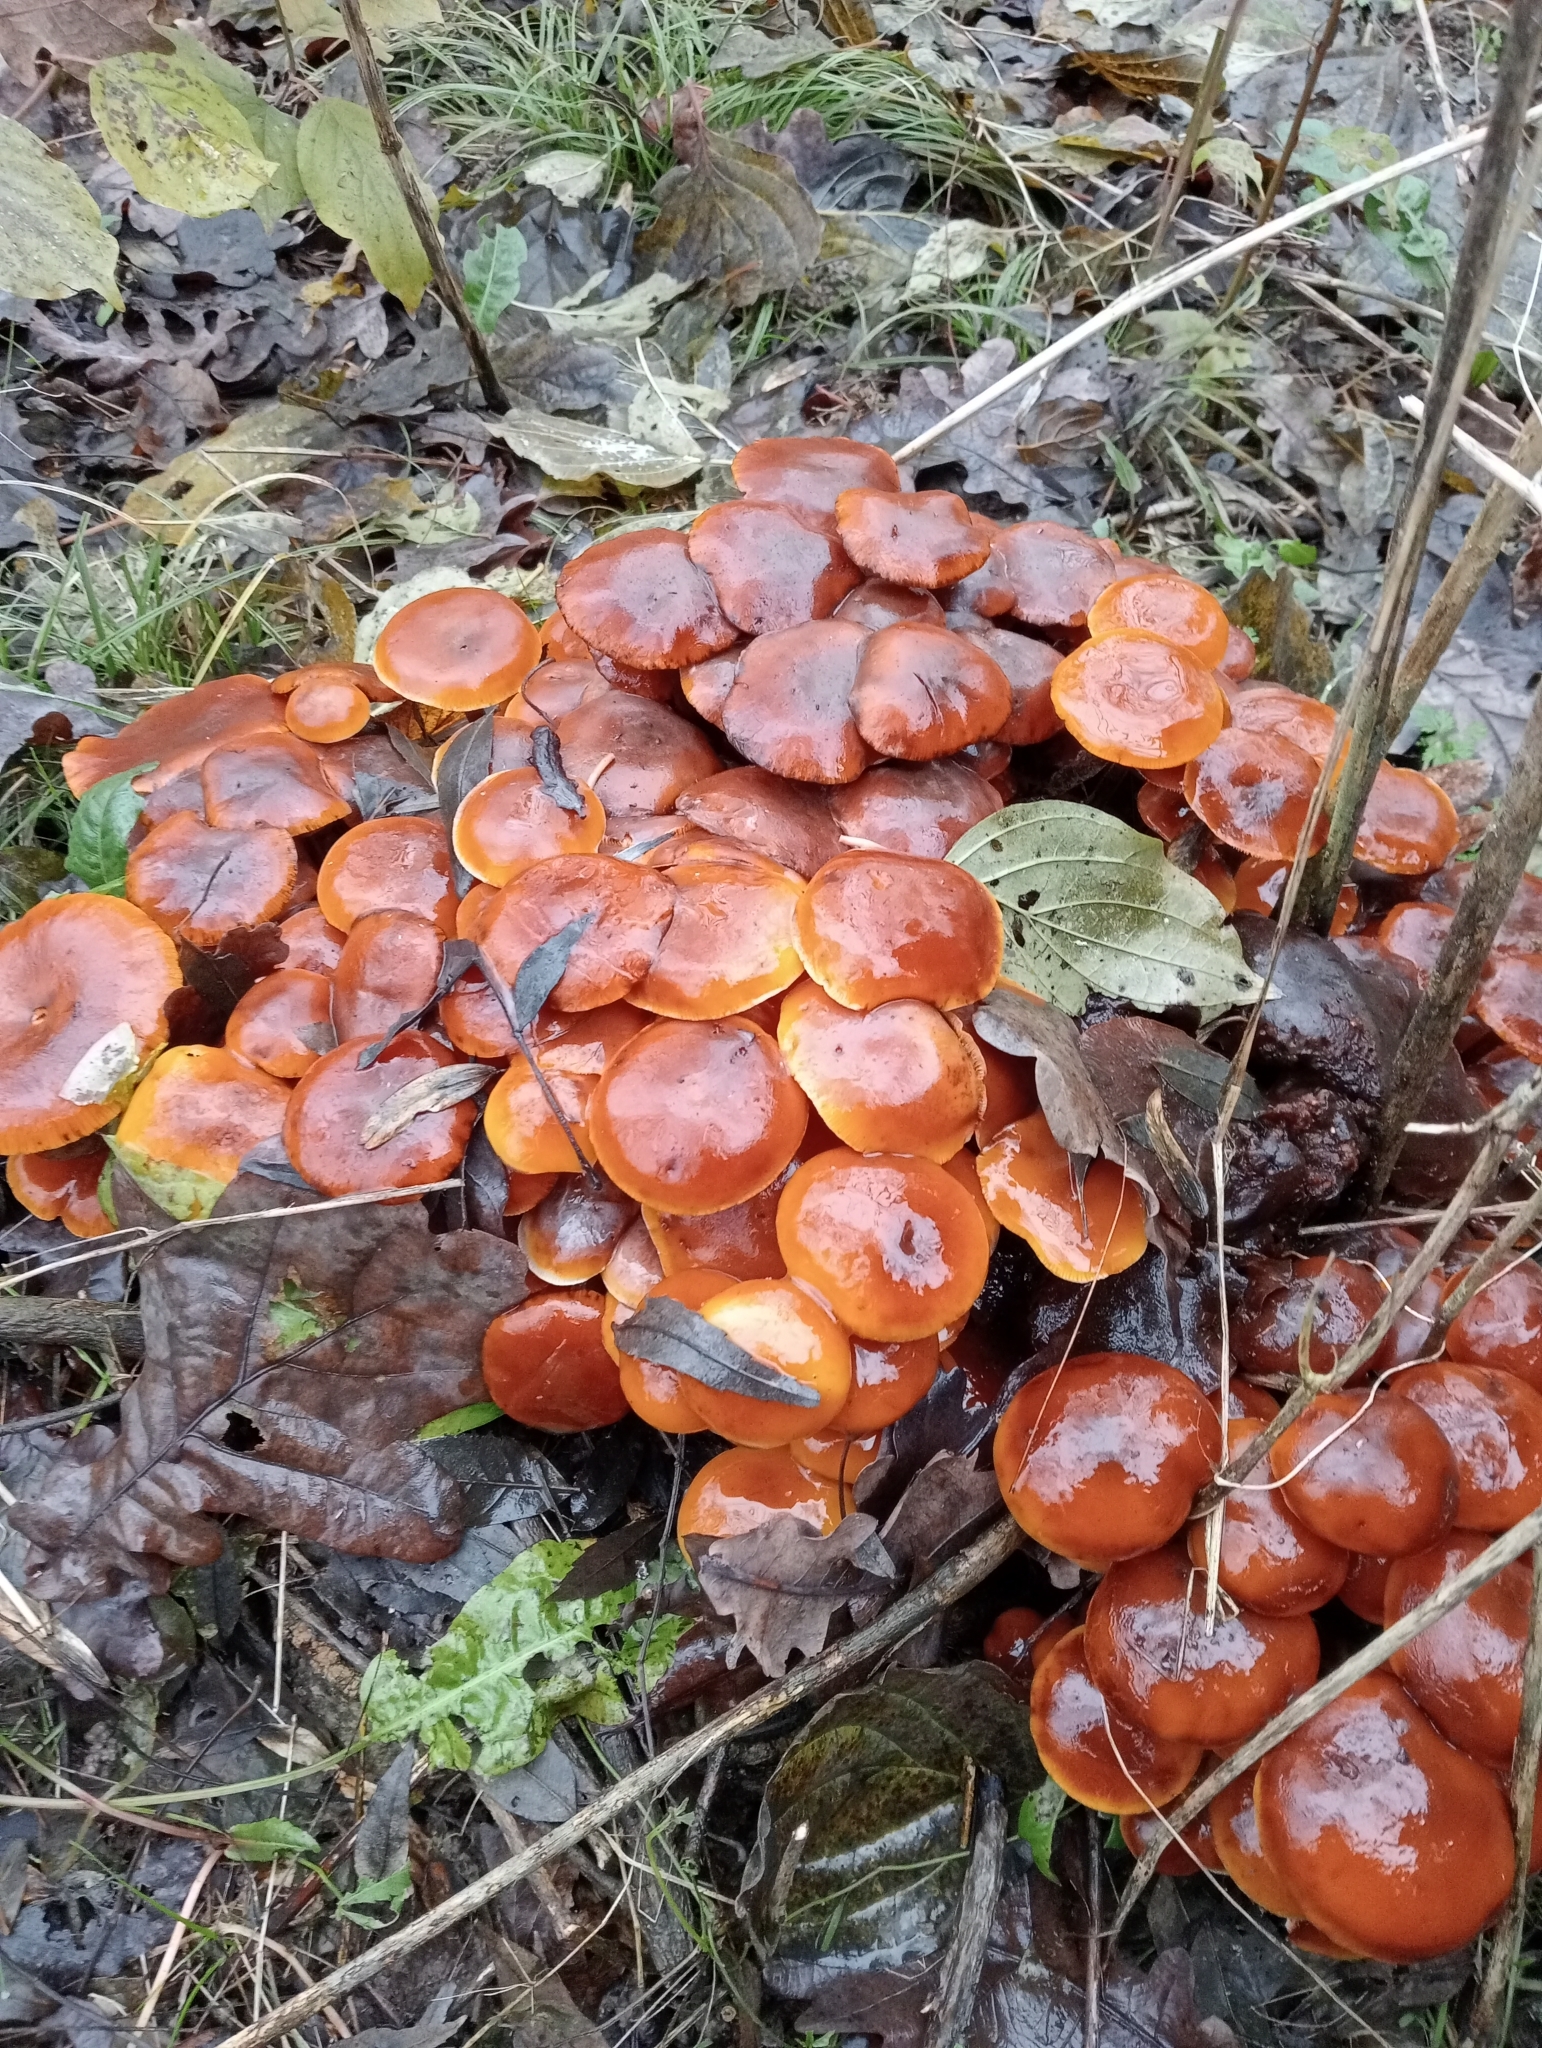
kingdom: Fungi
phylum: Basidiomycota
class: Agaricomycetes
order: Agaricales
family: Physalacriaceae
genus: Flammulina
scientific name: Flammulina
